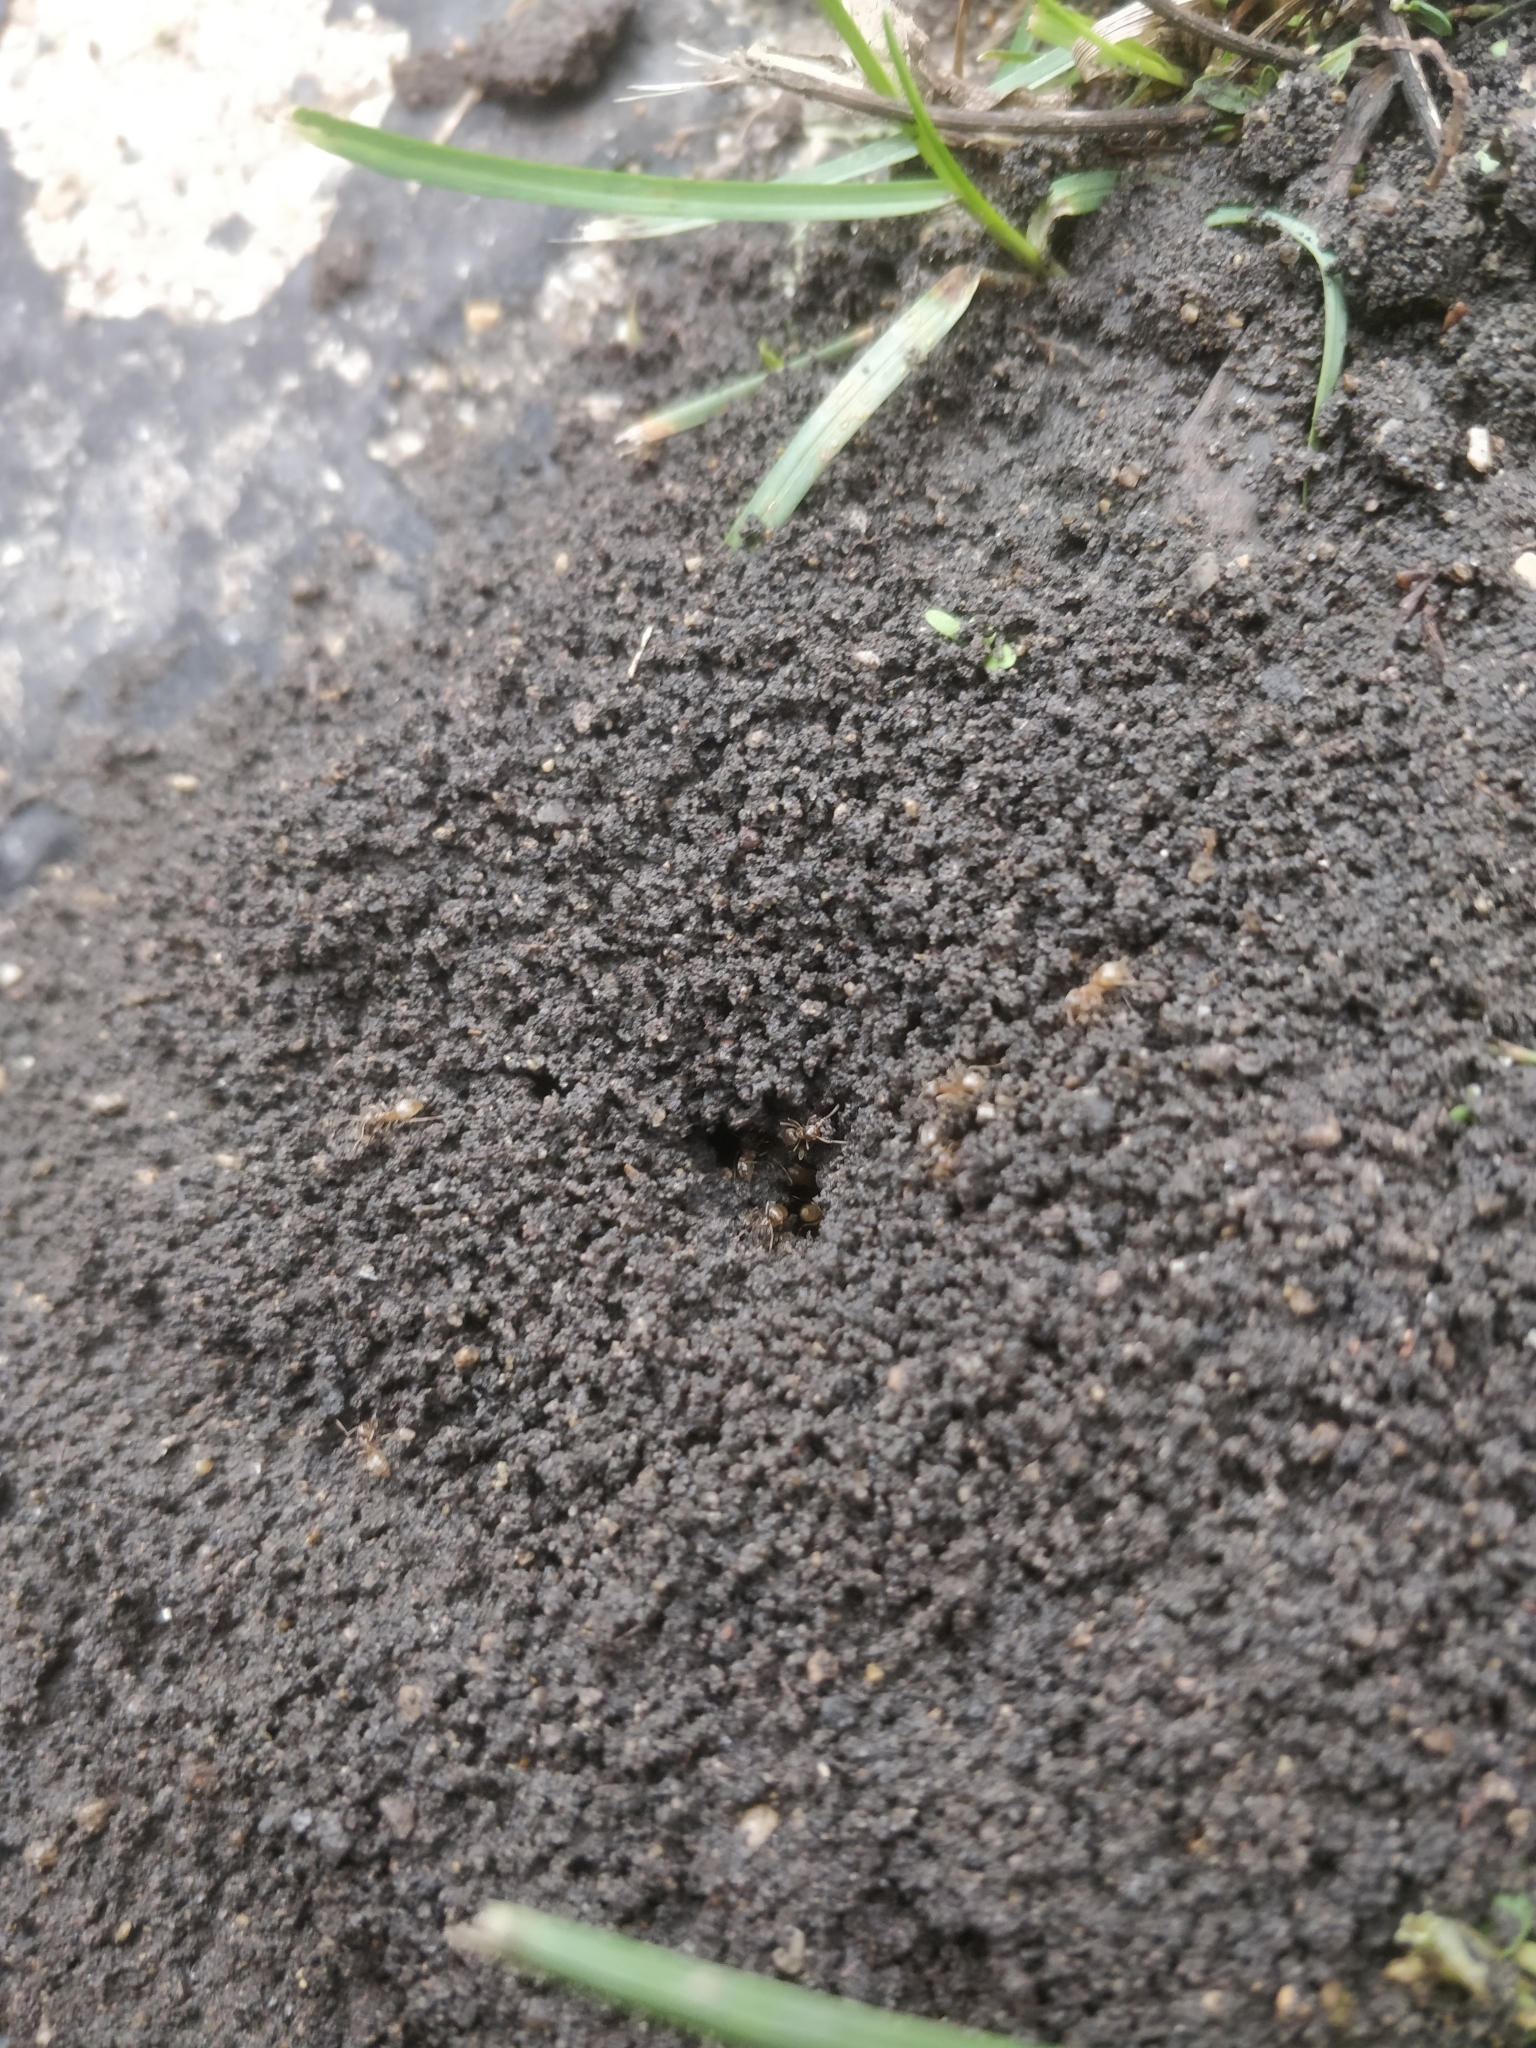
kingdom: Animalia
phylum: Arthropoda
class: Insecta
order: Hymenoptera
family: Formicidae
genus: Lasius
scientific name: Lasius neoniger
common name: Turfgrass ant
